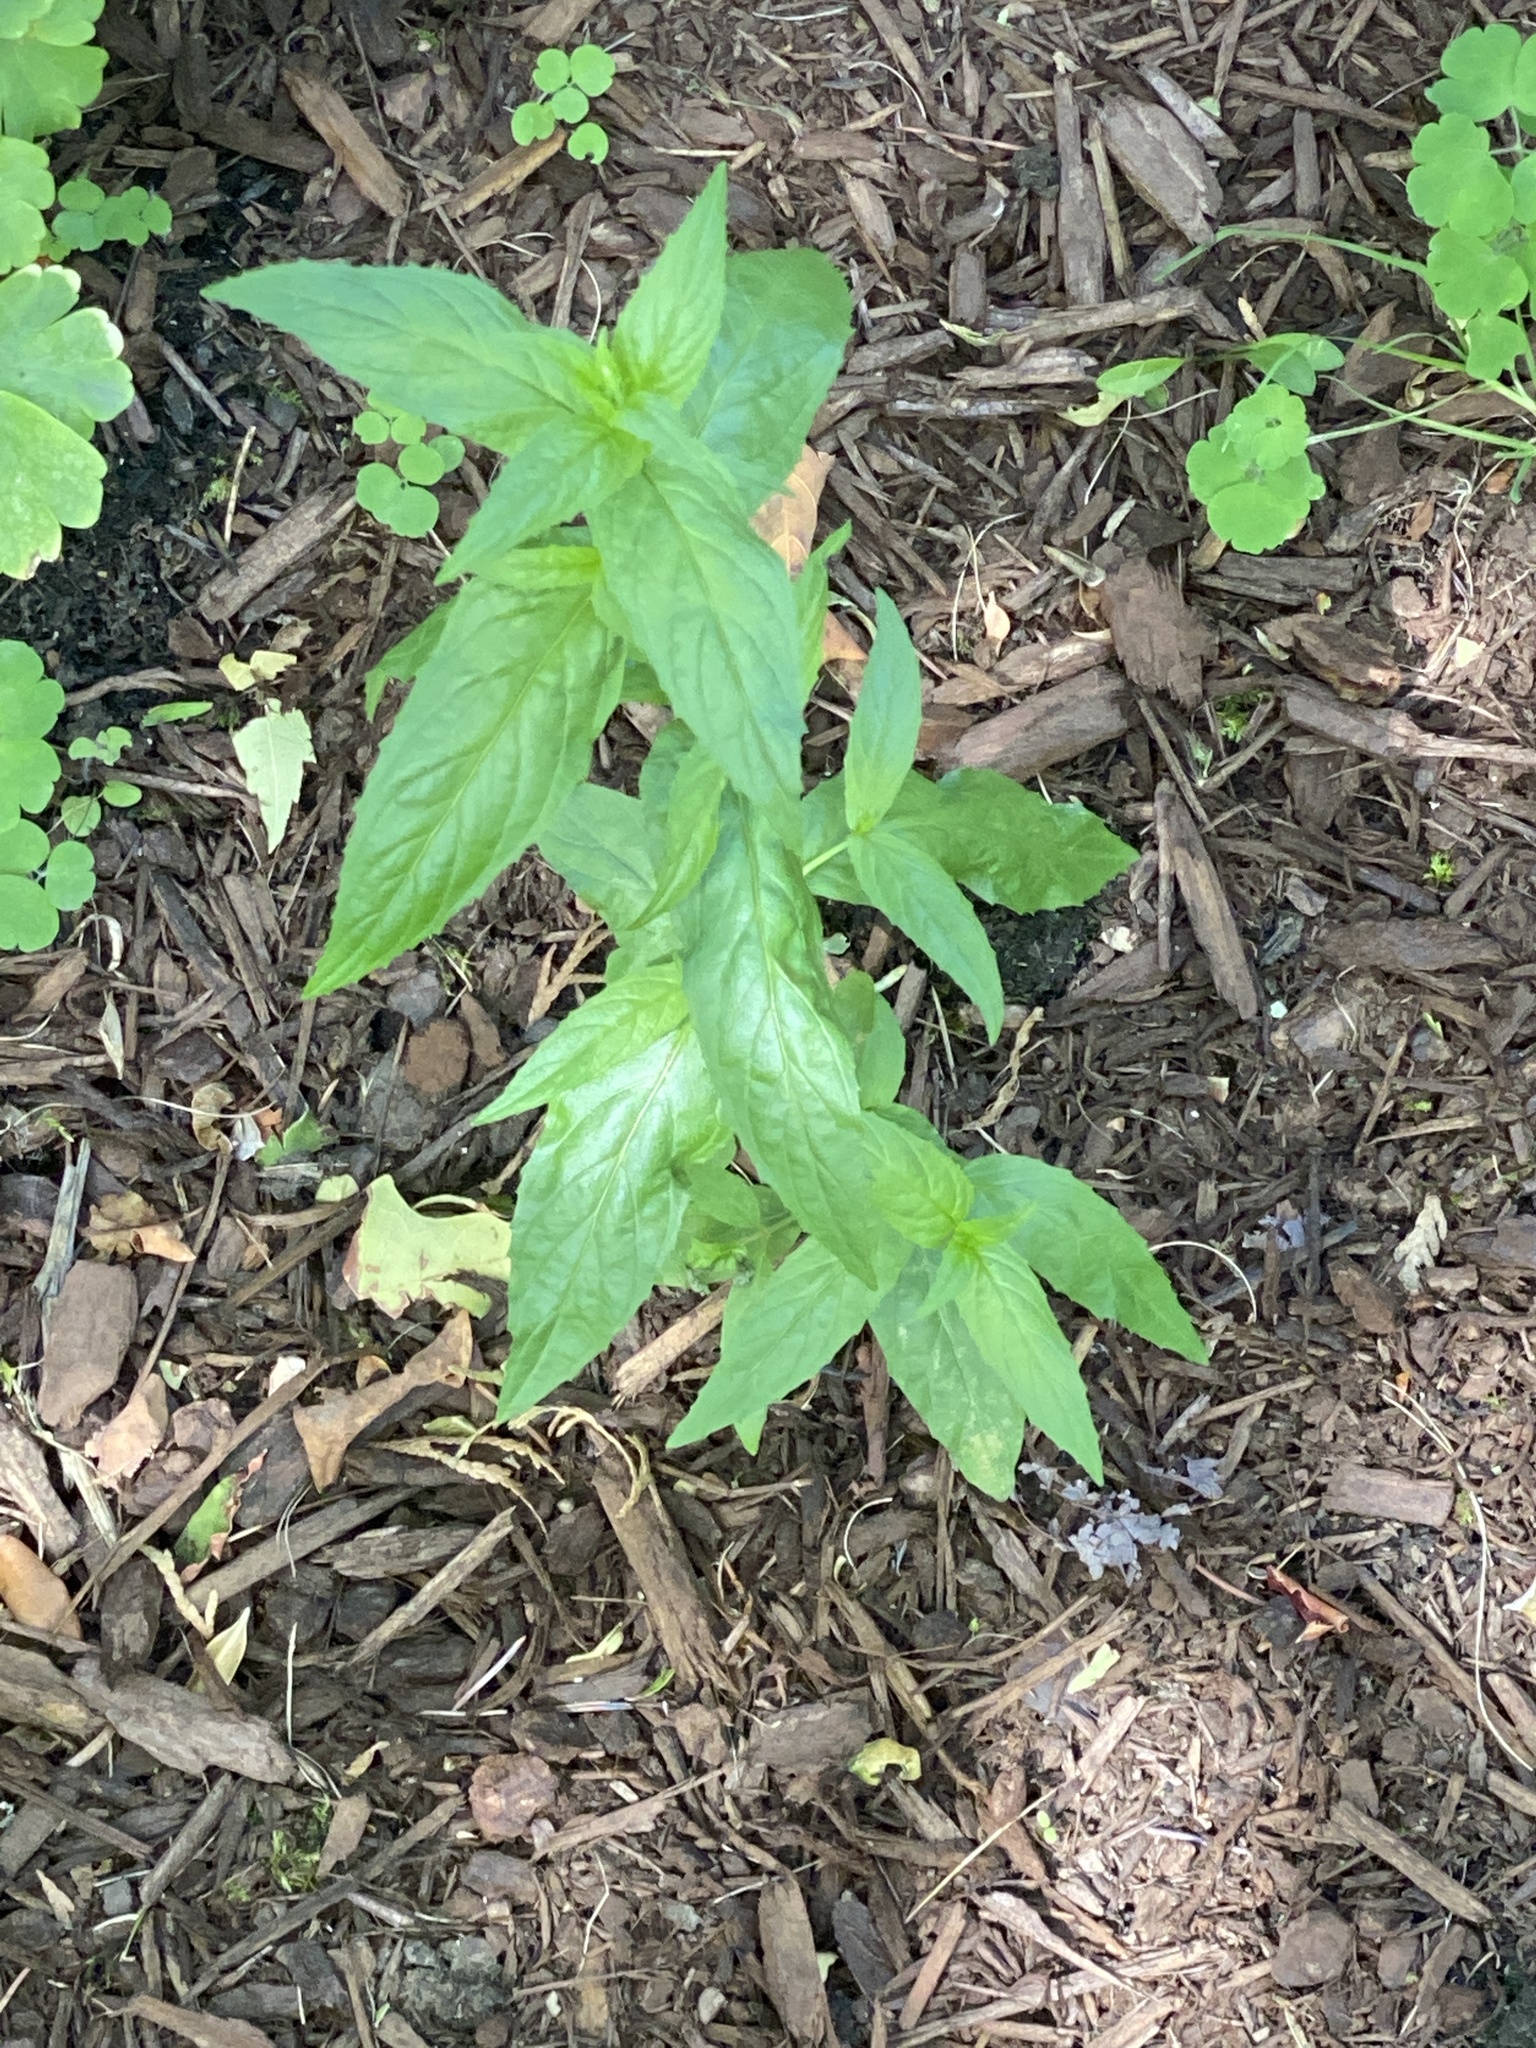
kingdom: Plantae
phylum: Tracheophyta
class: Magnoliopsida
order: Myrtales
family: Onagraceae
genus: Epilobium
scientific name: Epilobium ciliatum
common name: American willowherb
